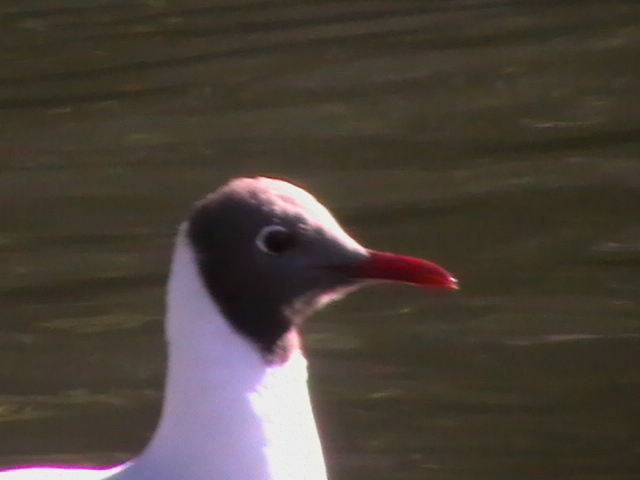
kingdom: Animalia
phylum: Chordata
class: Aves
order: Charadriiformes
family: Laridae
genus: Chroicocephalus
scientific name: Chroicocephalus ridibundus
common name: Black-headed gull
